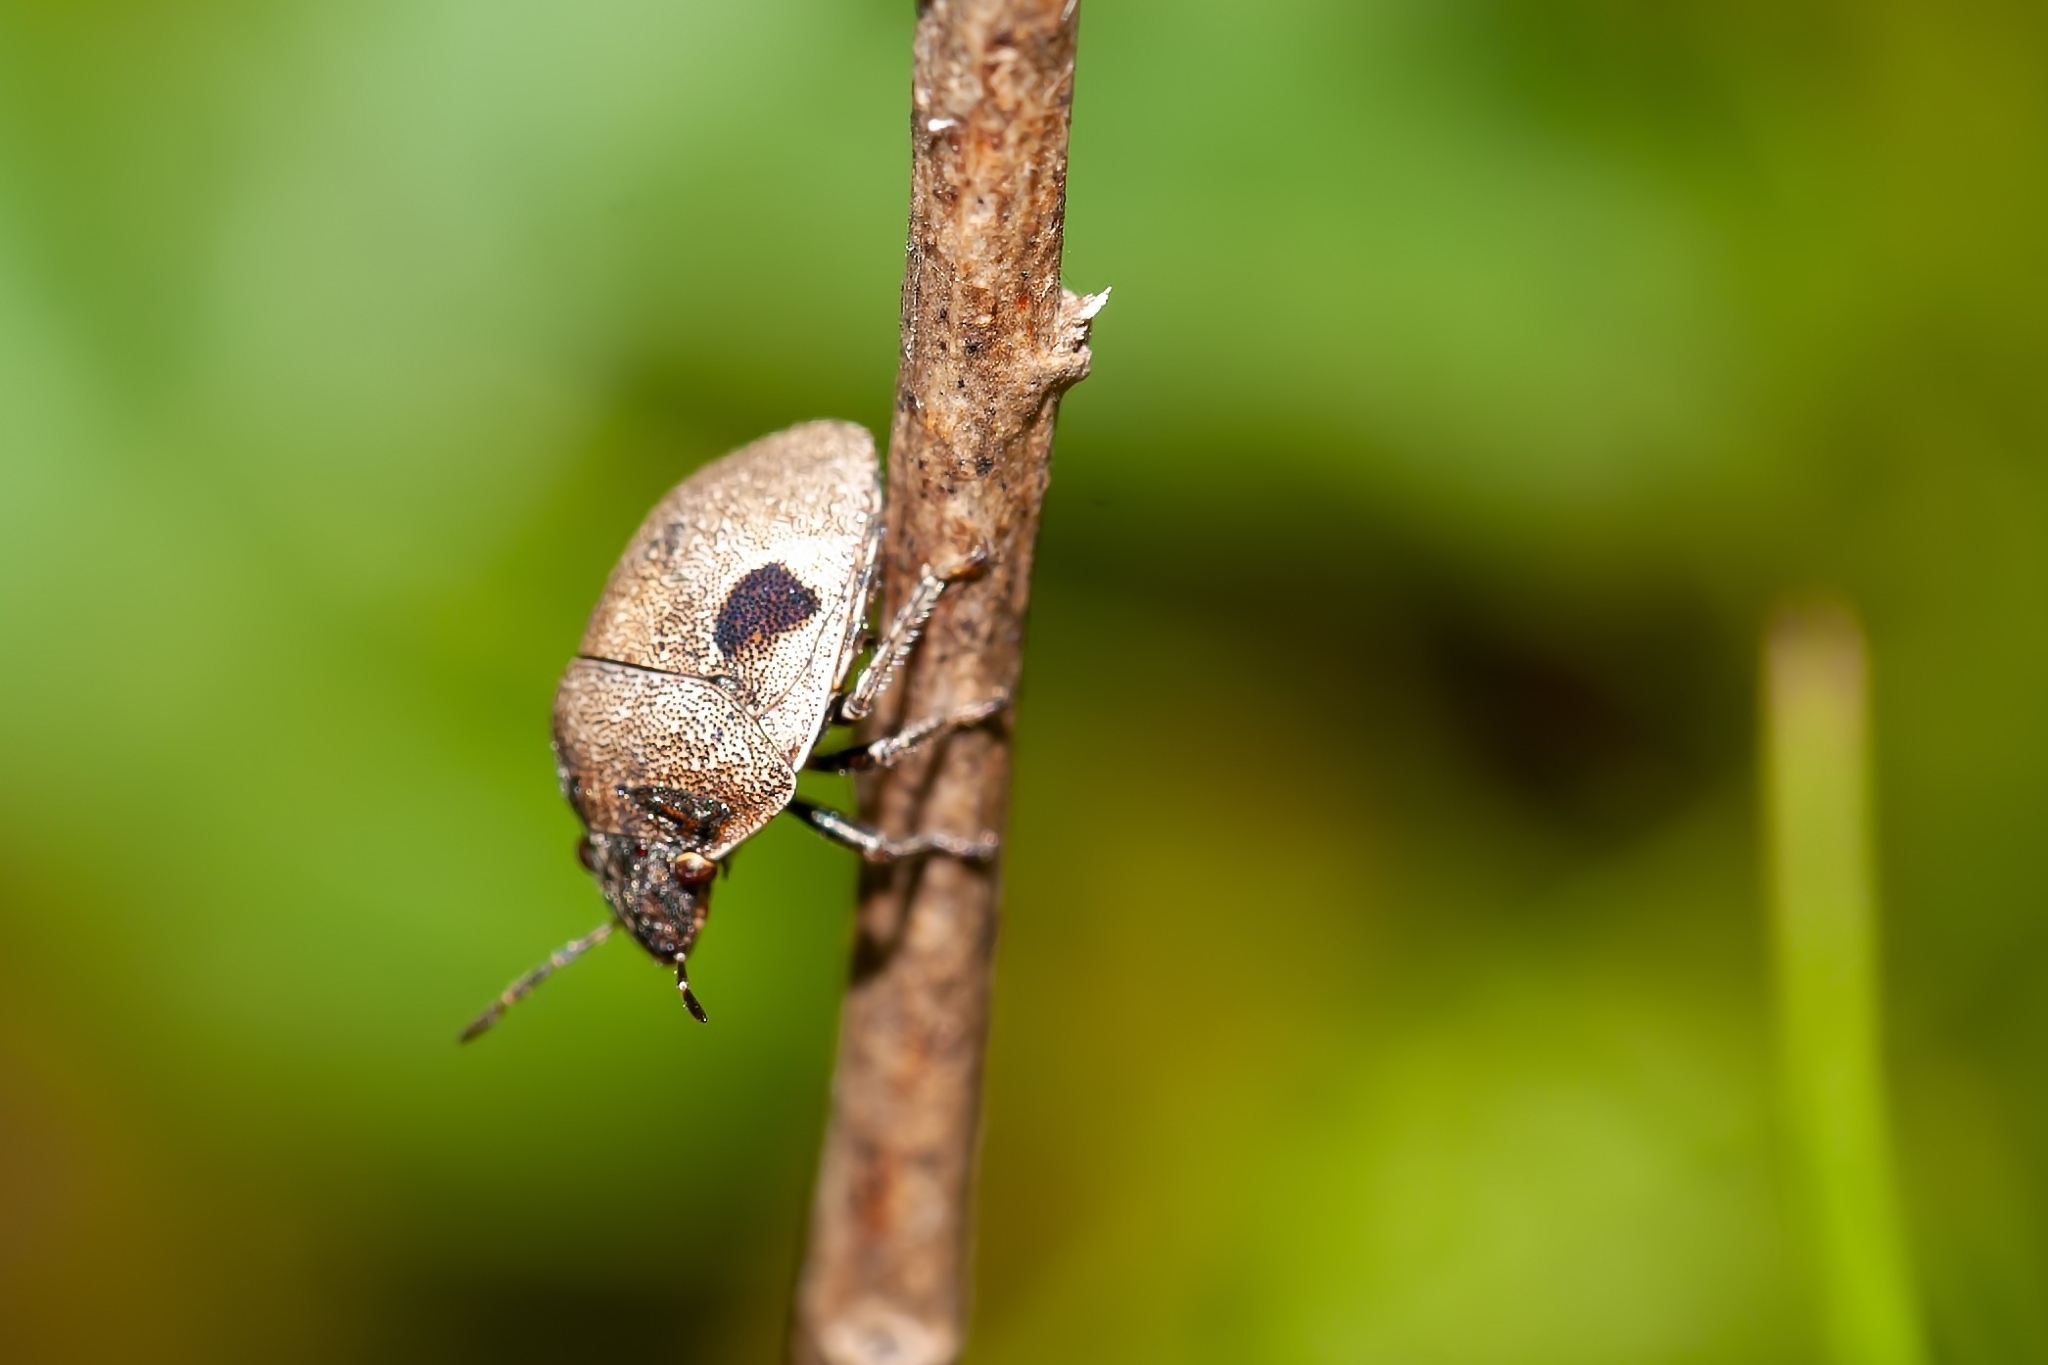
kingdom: Animalia
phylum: Arthropoda
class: Insecta
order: Hemiptera
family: Scutelleridae
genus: Homaemus
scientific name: Homaemus proteus
